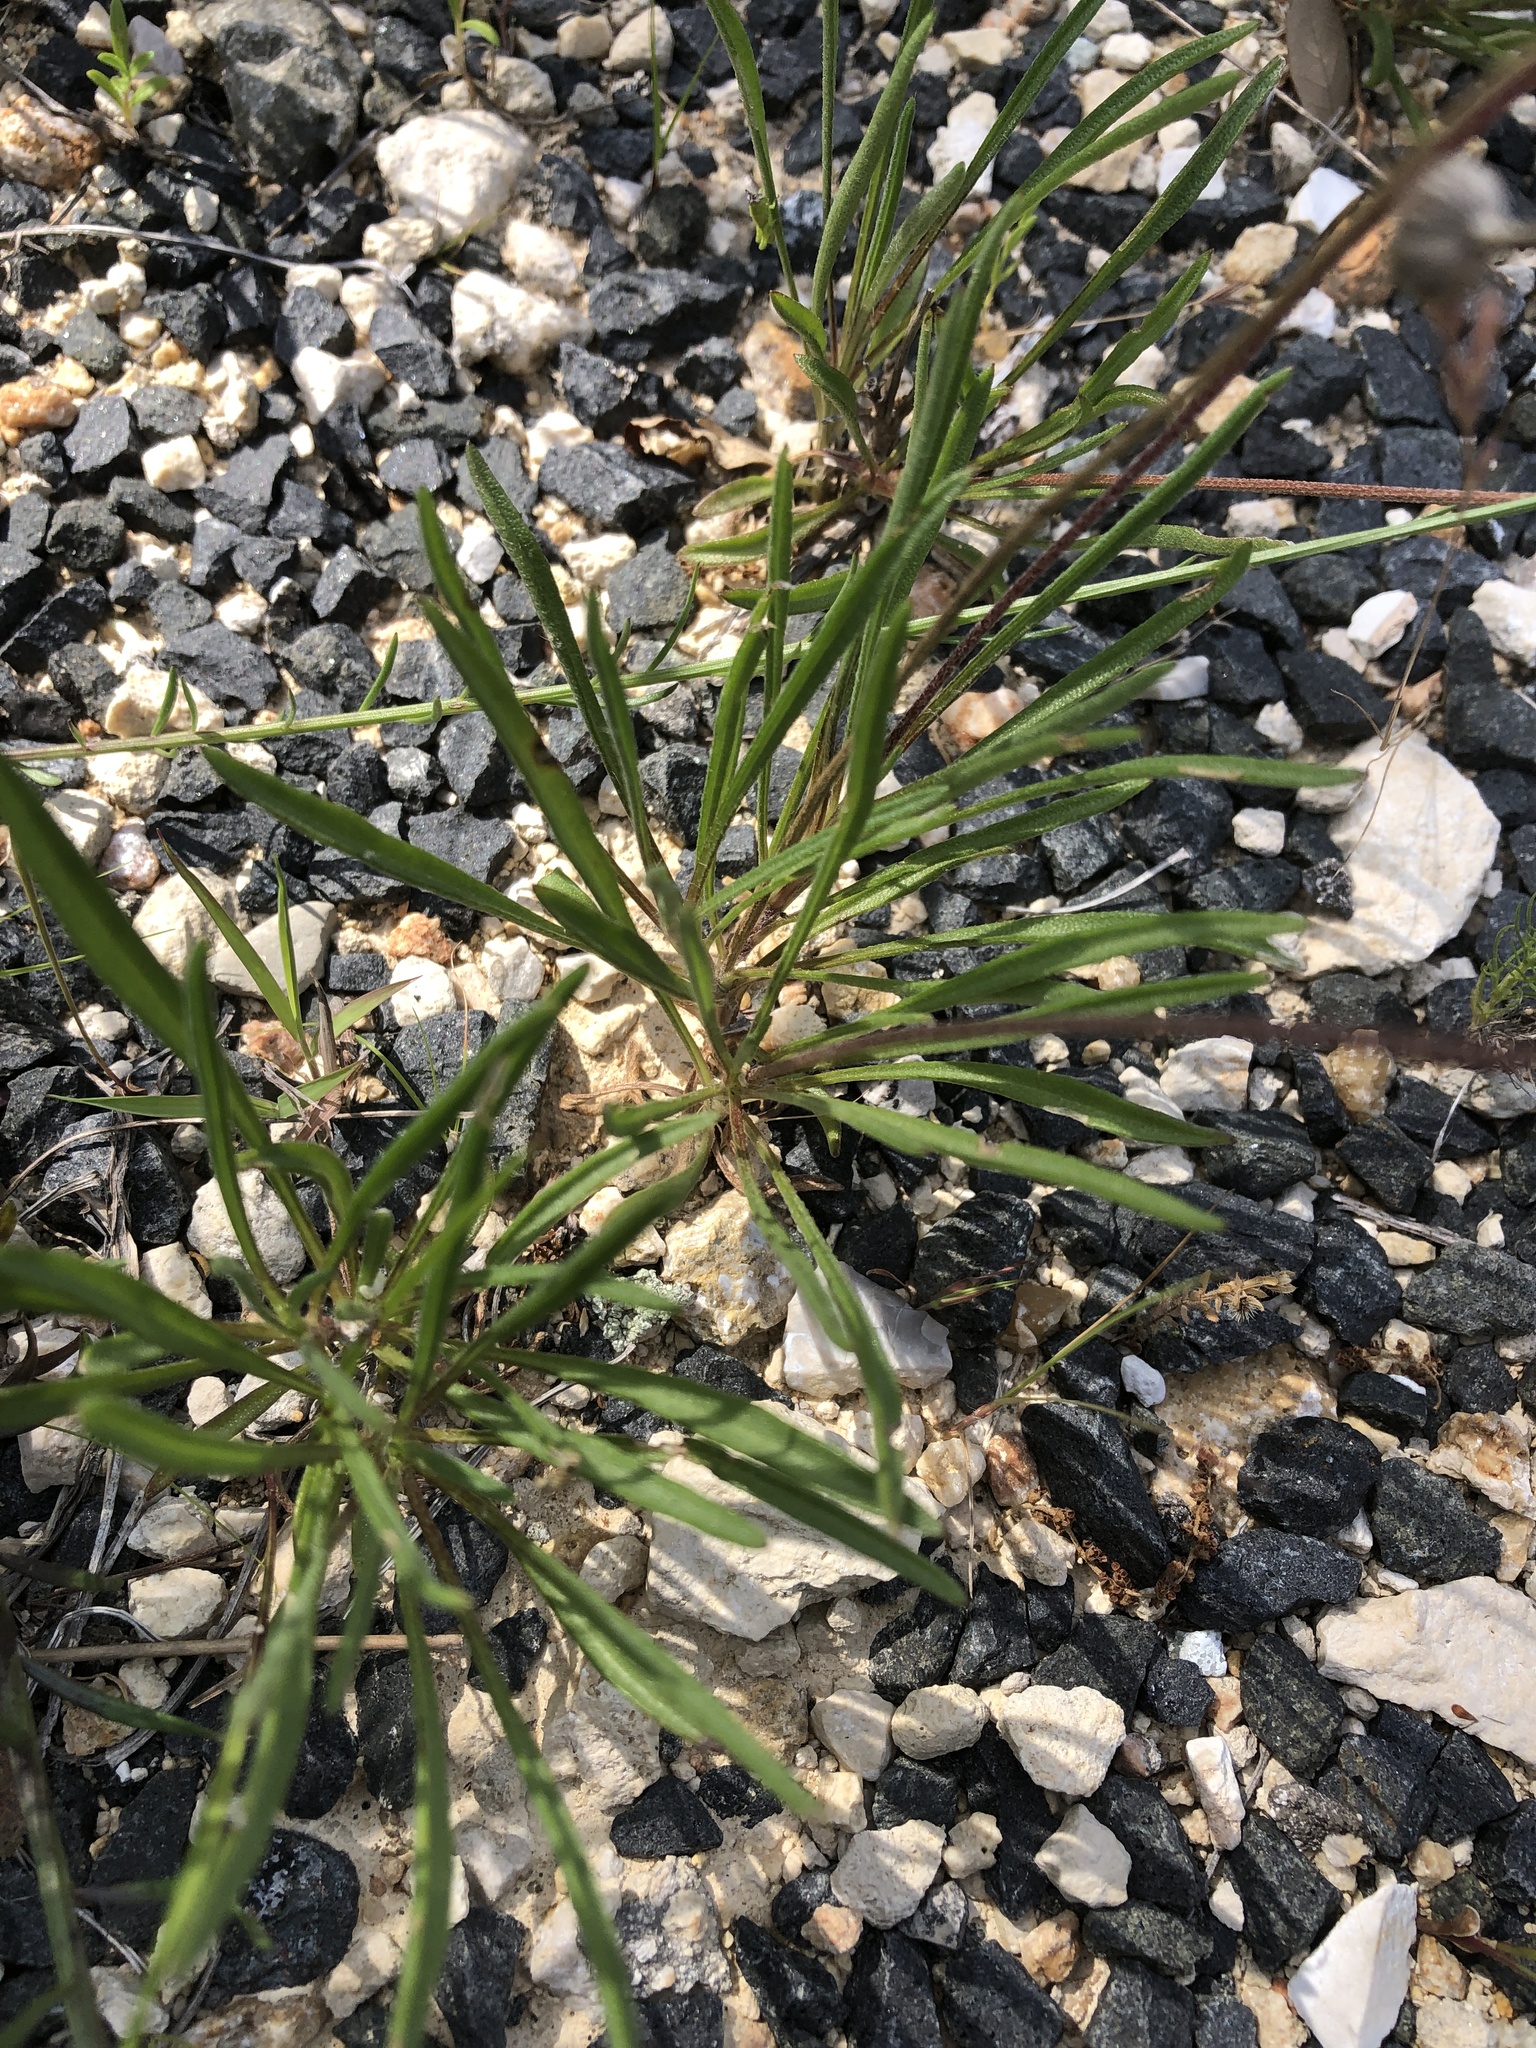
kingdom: Plantae
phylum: Tracheophyta
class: Magnoliopsida
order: Asterales
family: Asteraceae
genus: Tetraneuris
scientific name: Tetraneuris linearifolia
